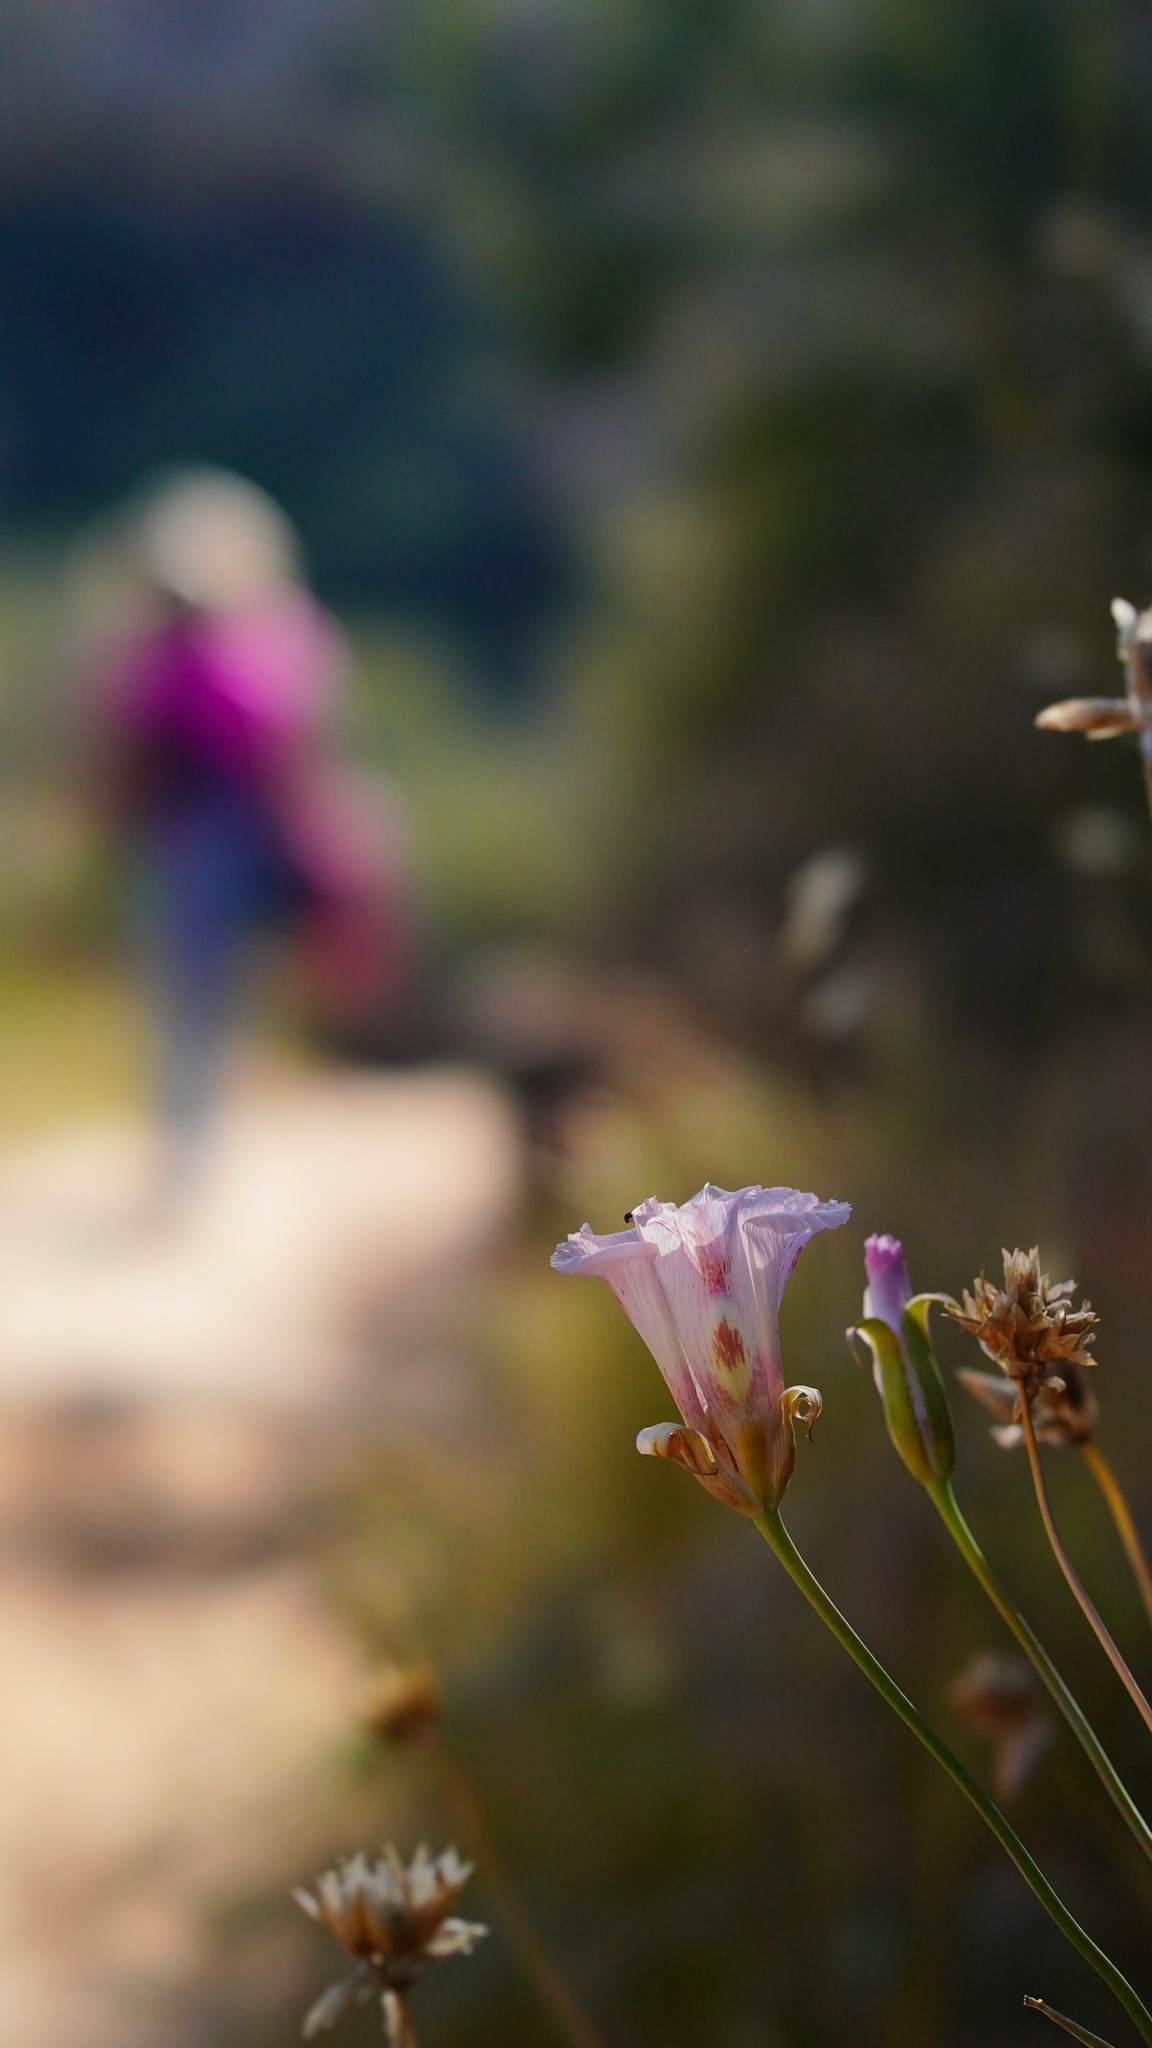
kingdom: Plantae
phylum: Tracheophyta
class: Liliopsida
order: Liliales
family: Liliaceae
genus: Calochortus
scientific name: Calochortus venustus
